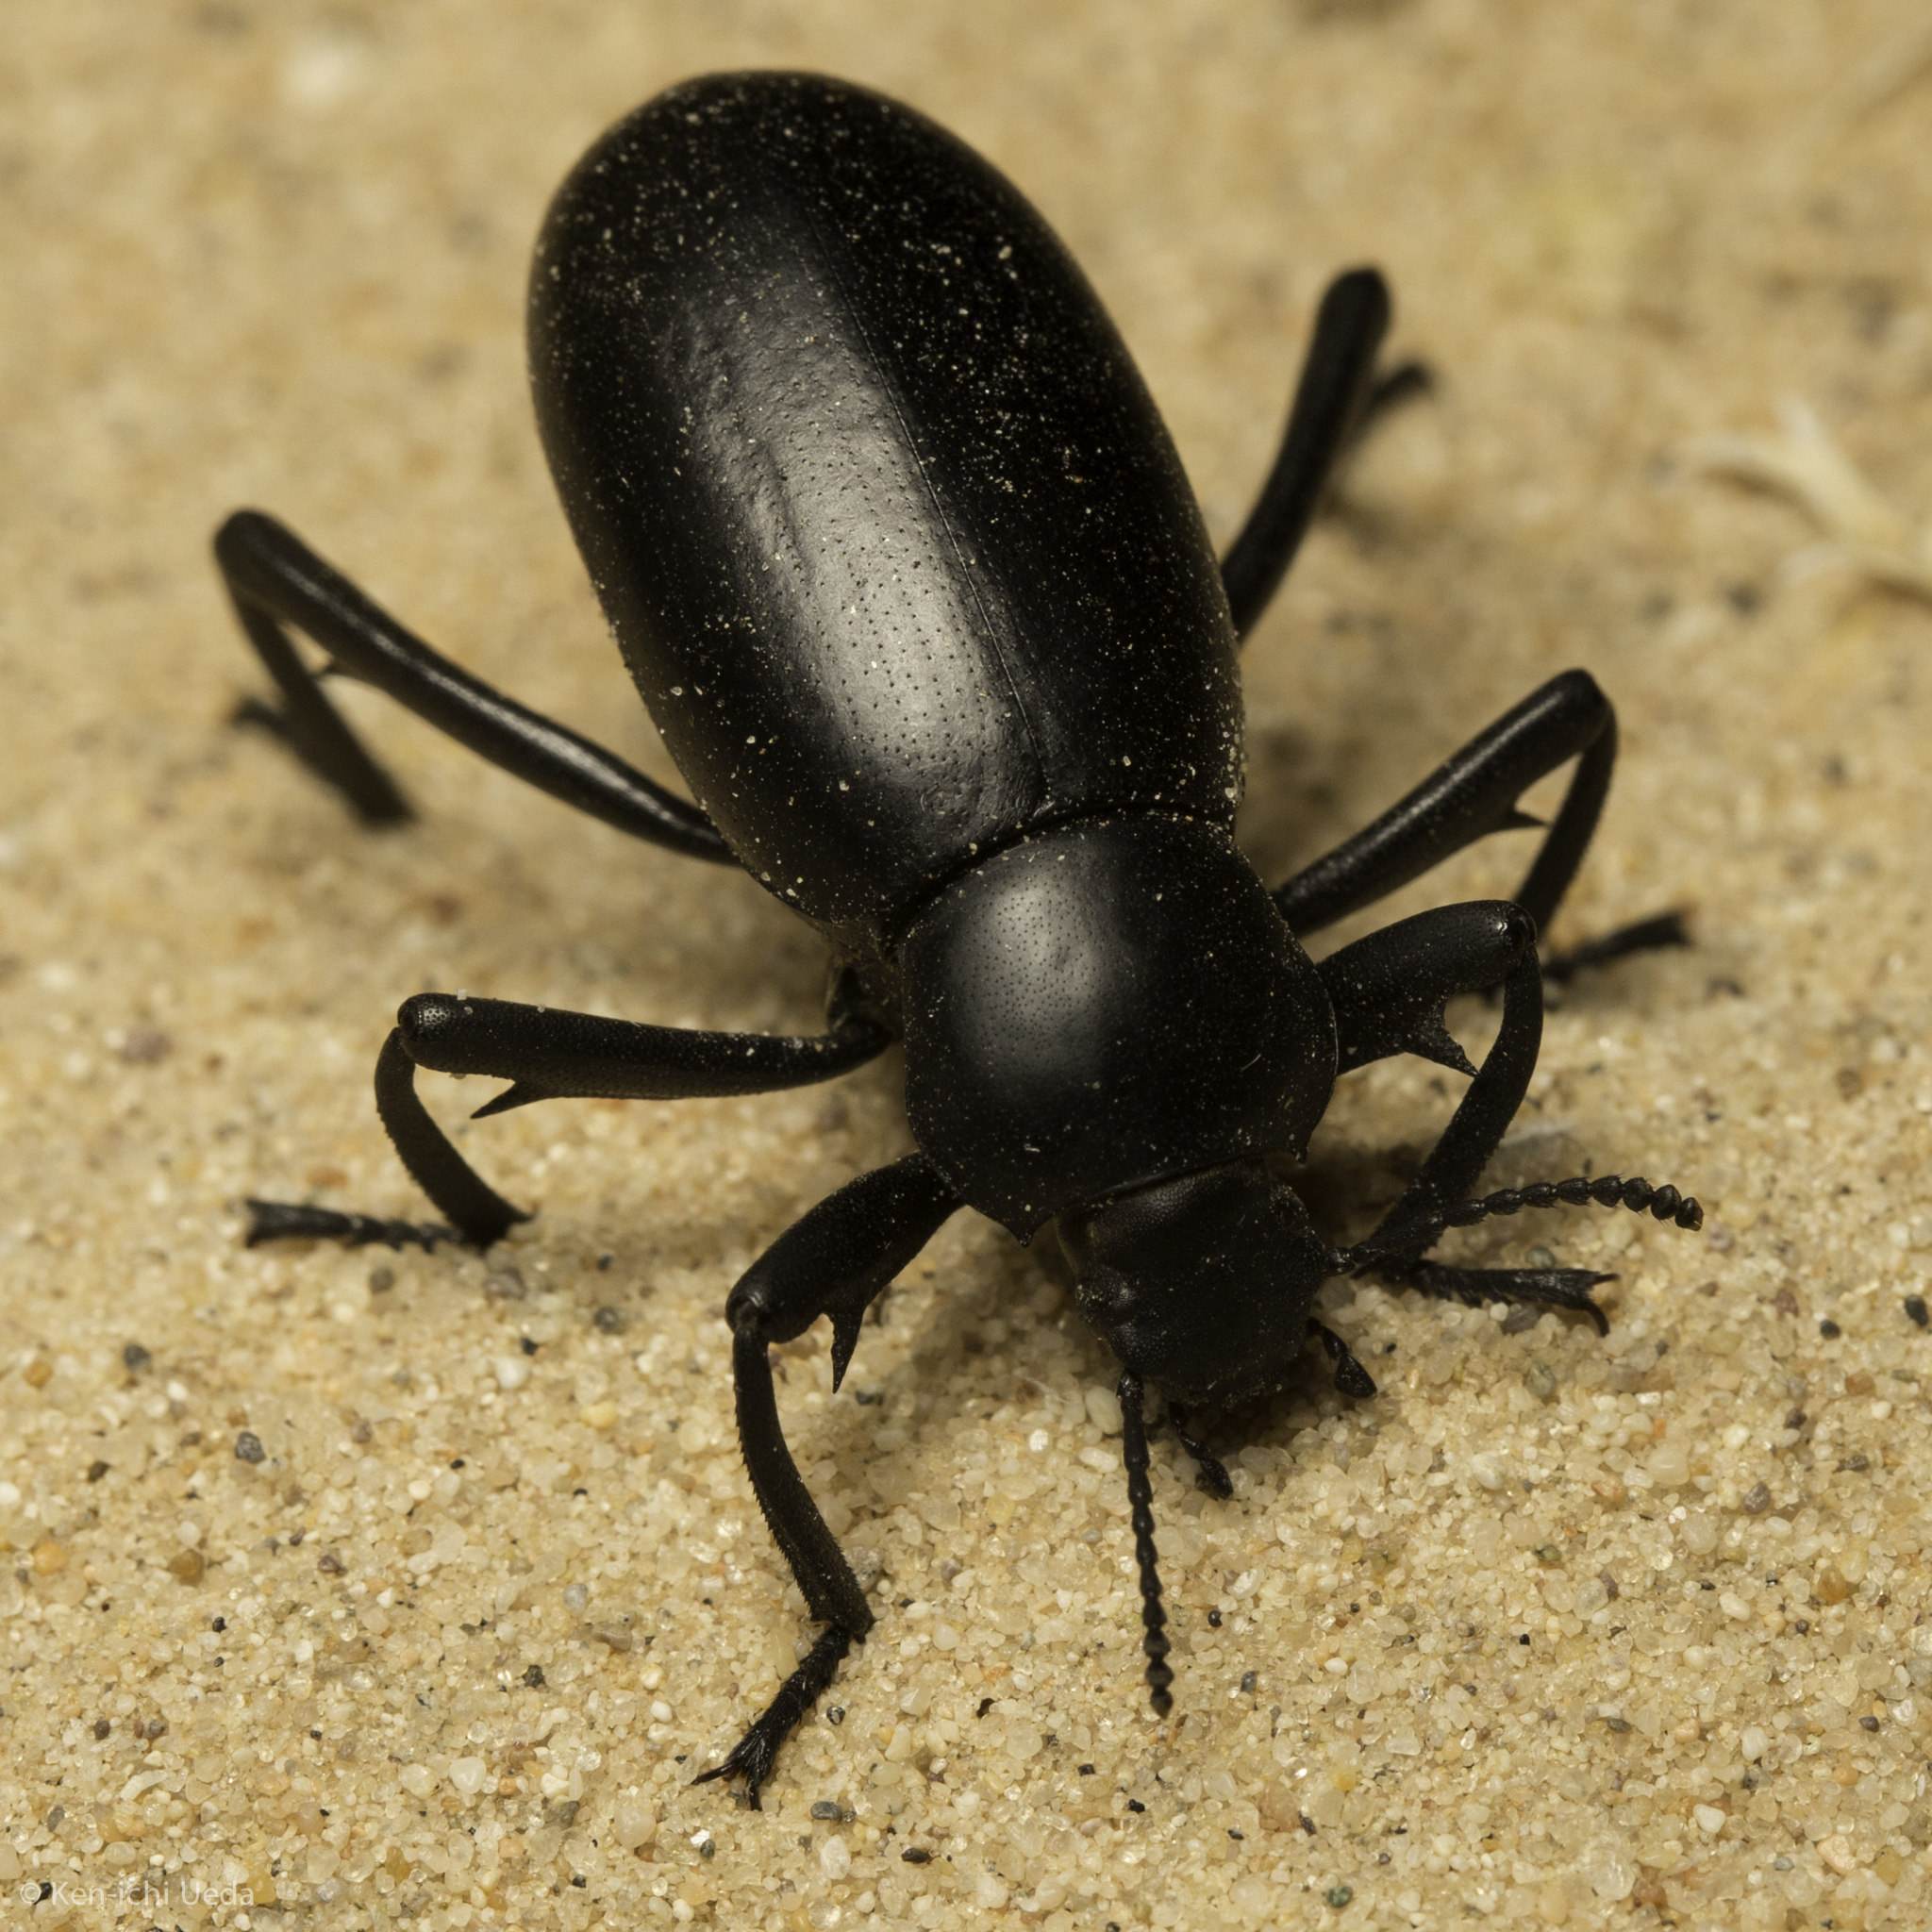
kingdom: Animalia
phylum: Arthropoda
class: Insecta
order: Coleoptera
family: Tenebrionidae
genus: Eleodes
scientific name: Eleodes armata
